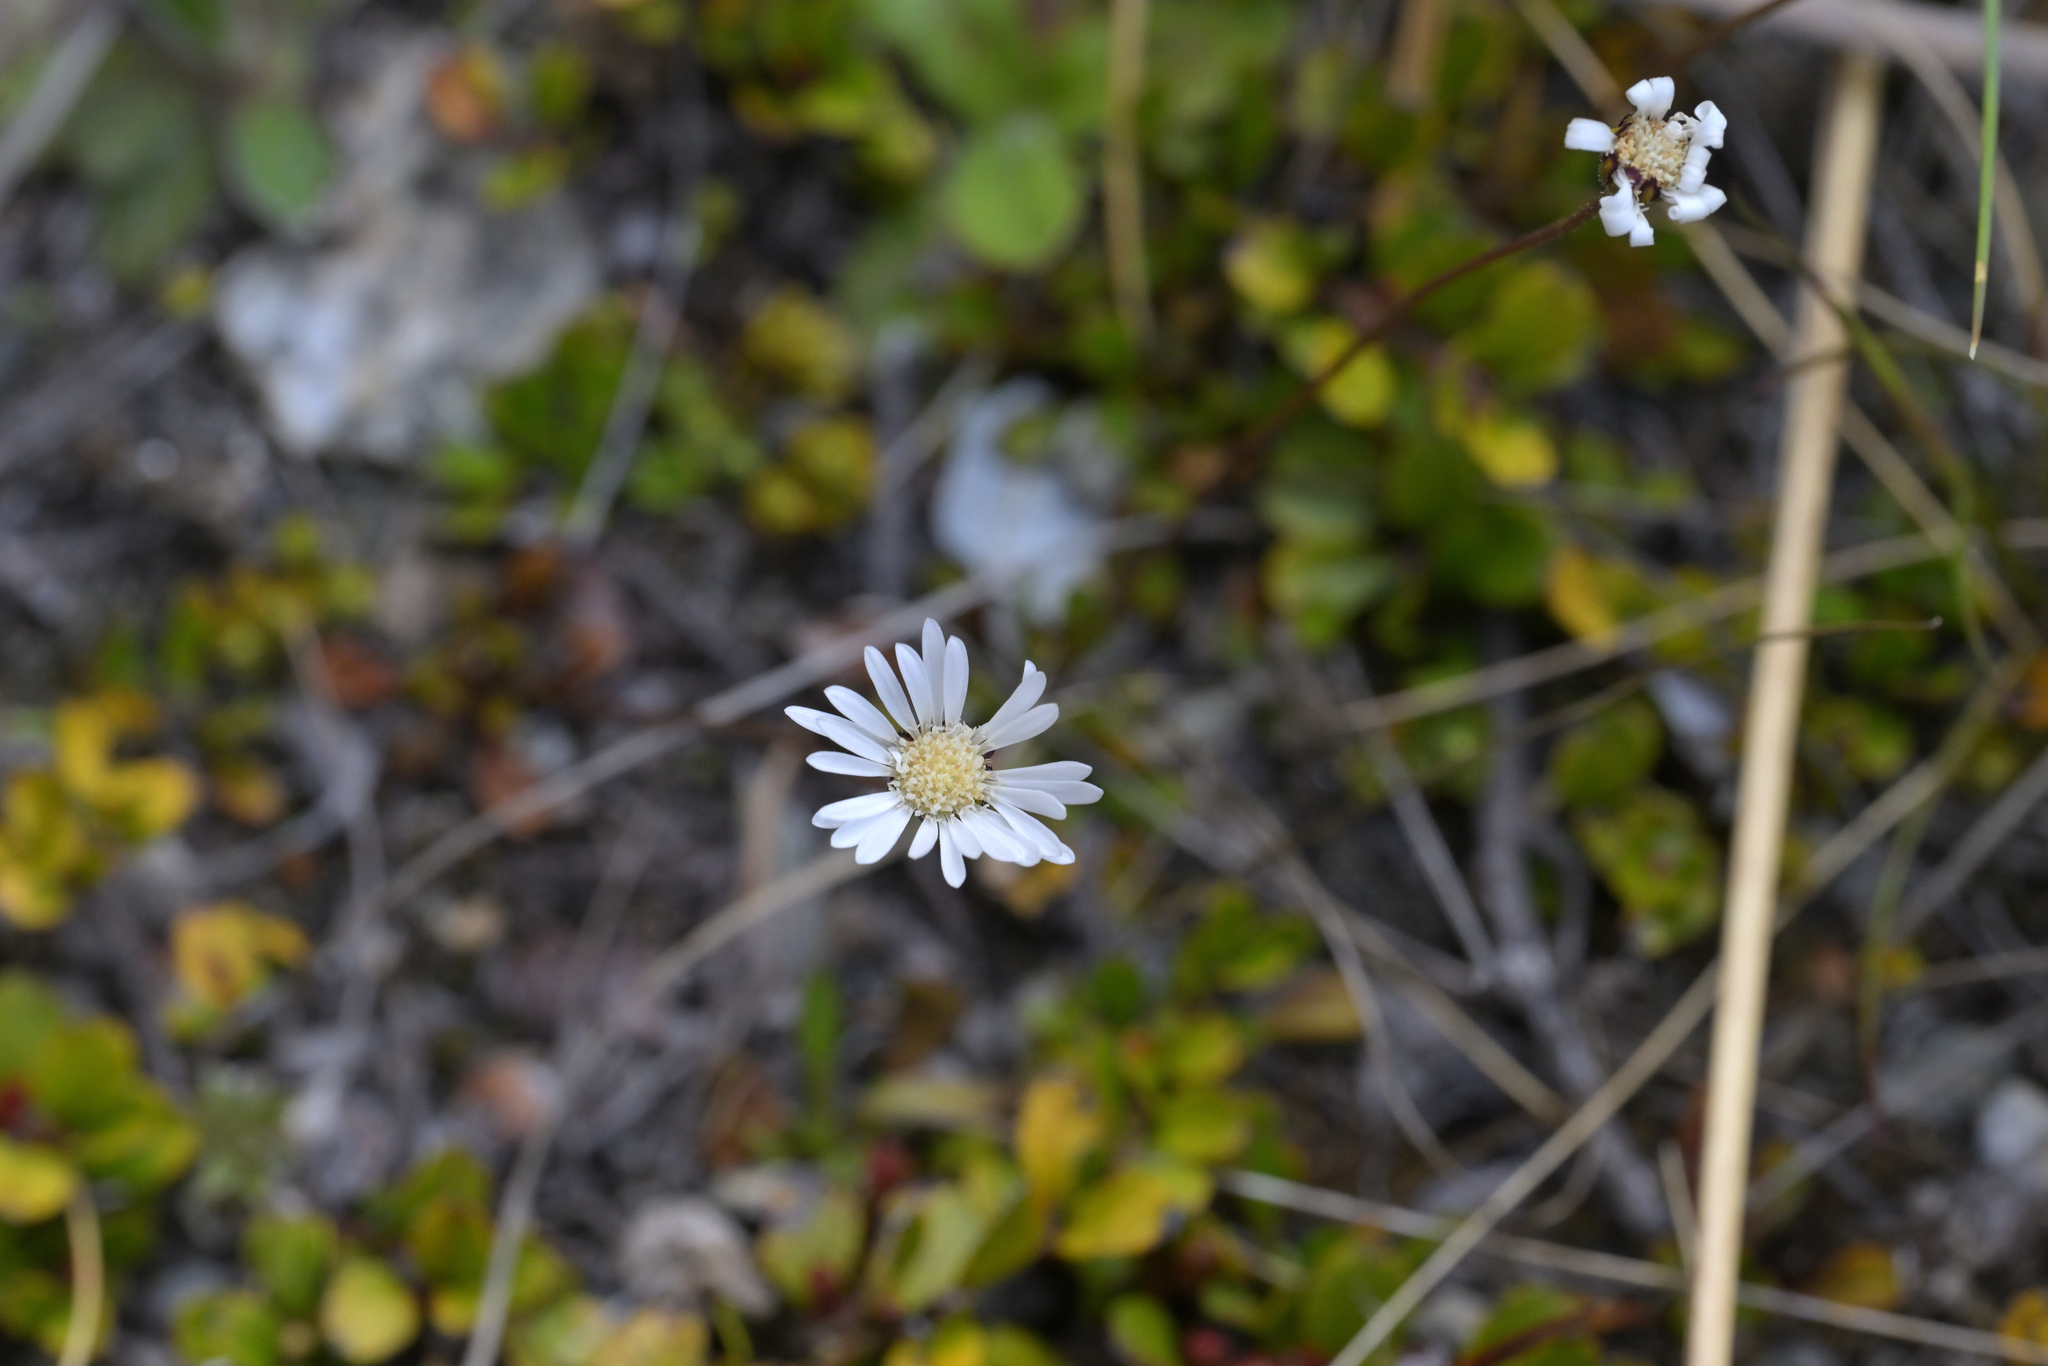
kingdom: Plantae
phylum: Tracheophyta
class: Magnoliopsida
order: Asterales
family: Asteraceae
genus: Brachyscome
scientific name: Brachyscome longiscapa
